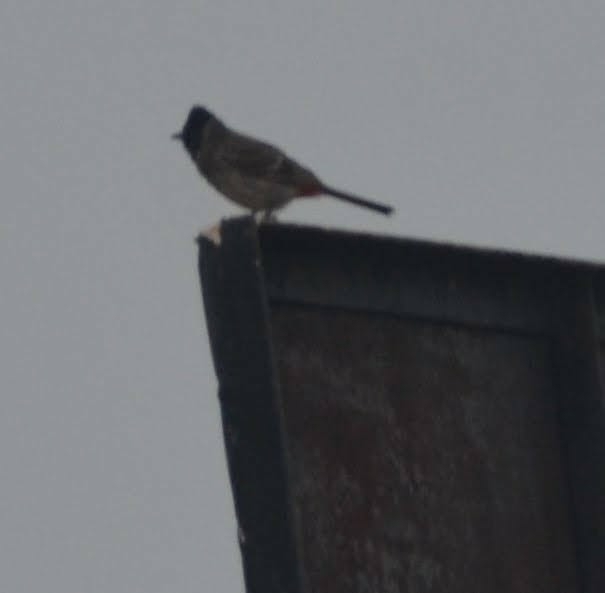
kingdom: Animalia
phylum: Chordata
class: Aves
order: Passeriformes
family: Pycnonotidae
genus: Pycnonotus
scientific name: Pycnonotus cafer
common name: Red-vented bulbul
